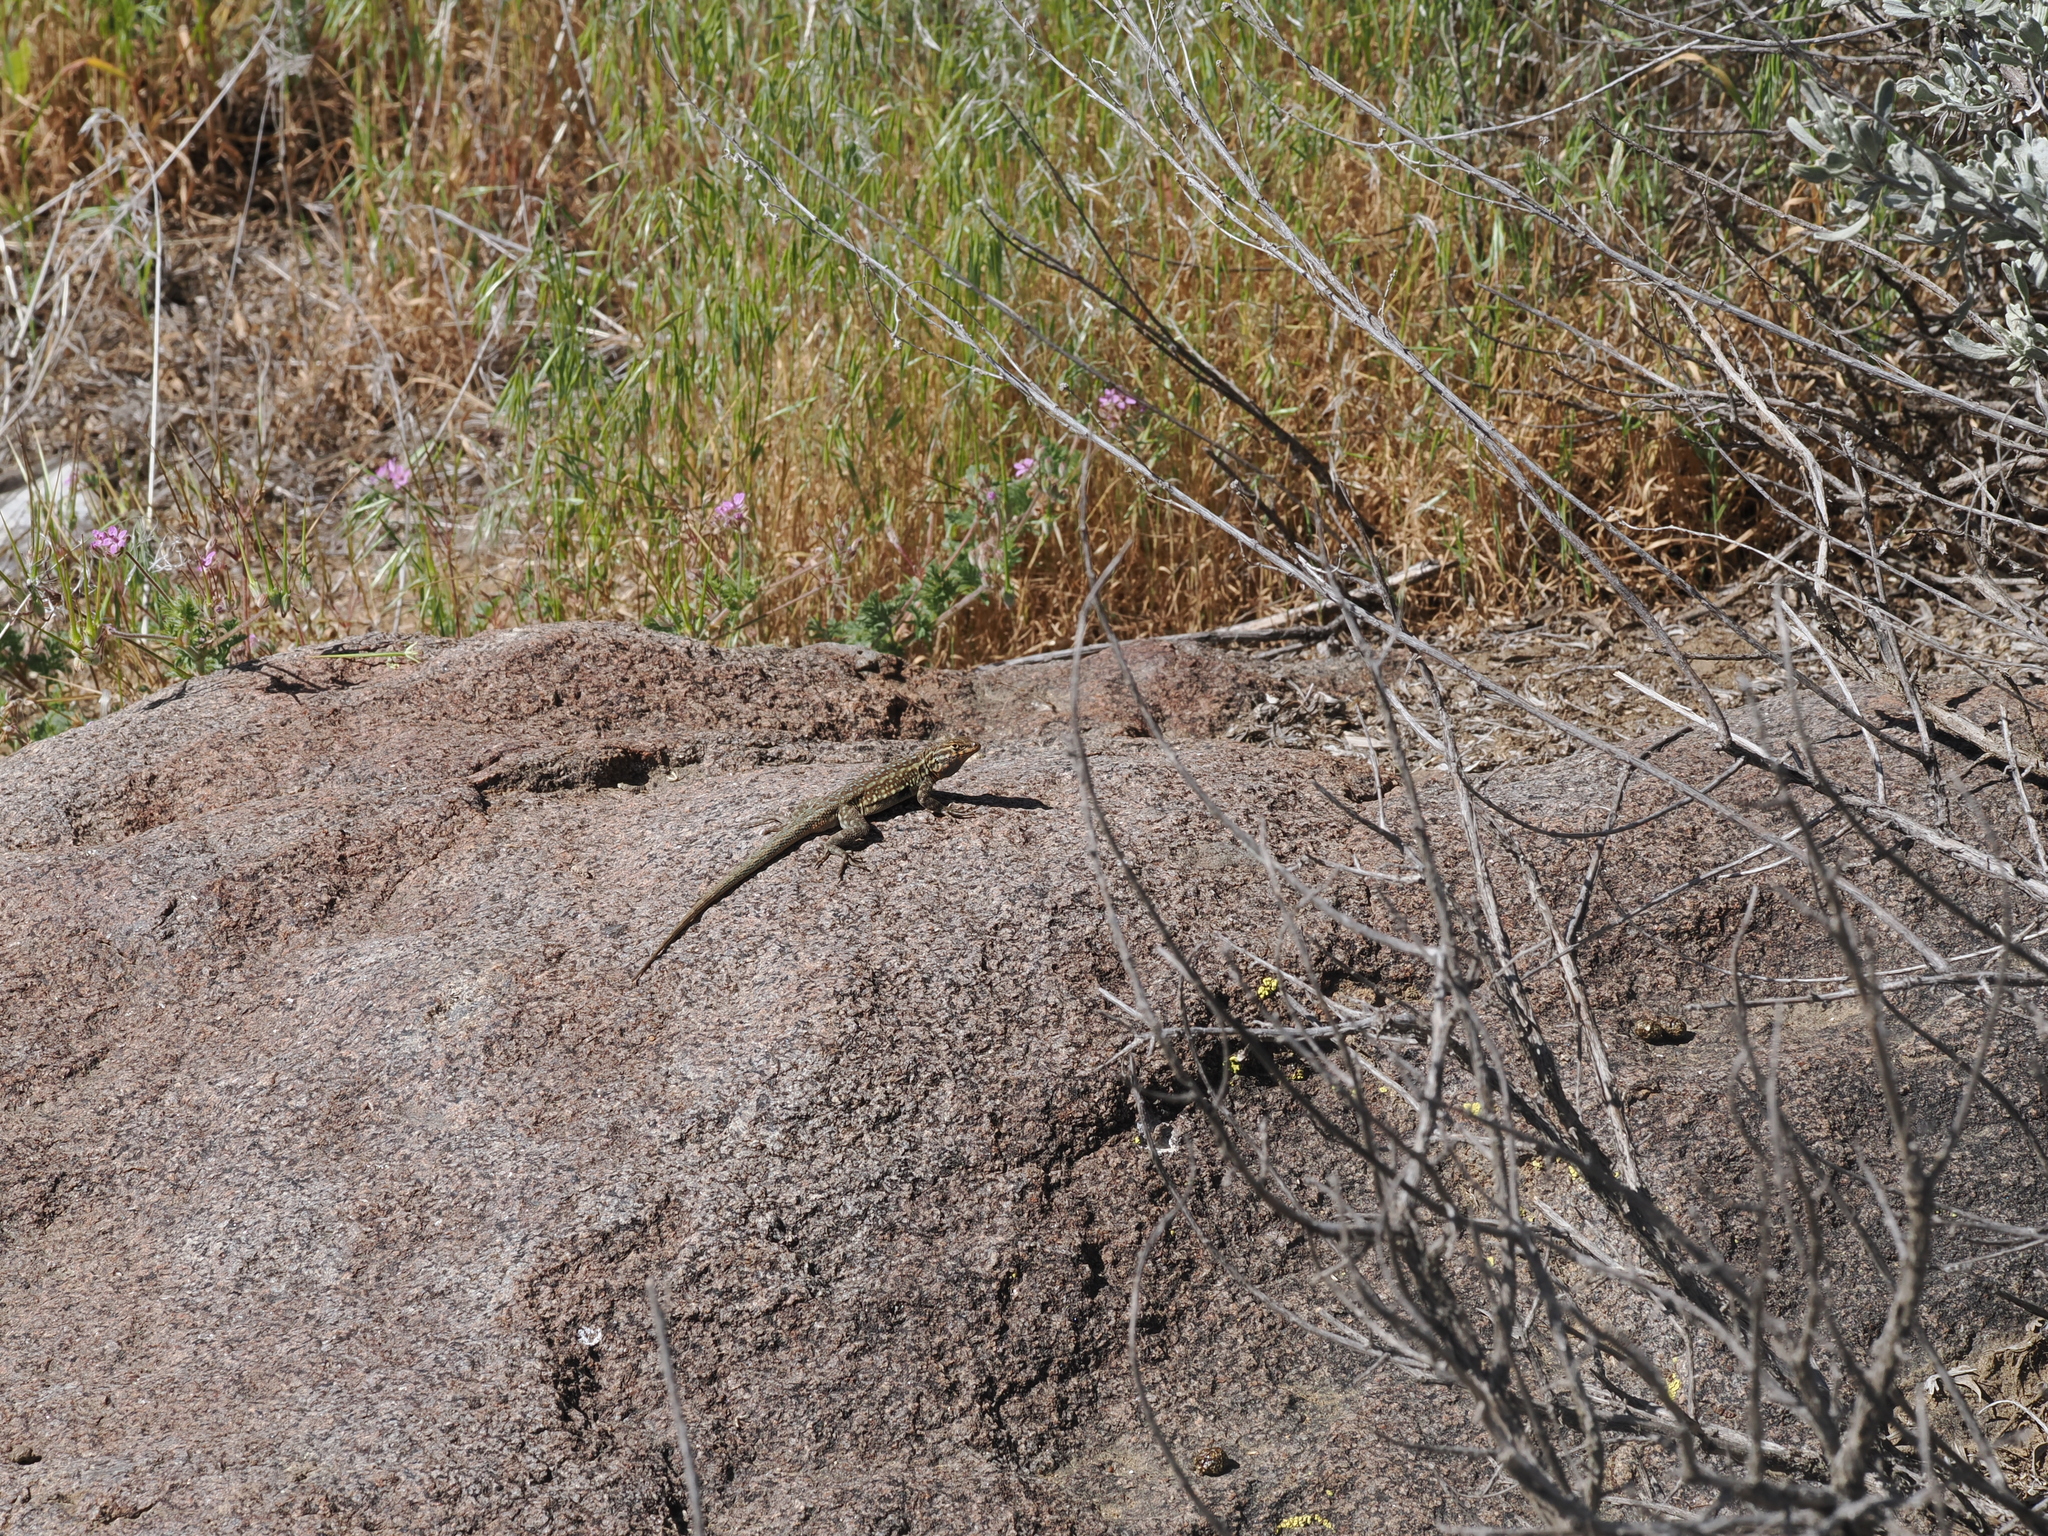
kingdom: Animalia
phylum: Chordata
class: Squamata
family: Phrynosomatidae
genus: Uta
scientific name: Uta stansburiana
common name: Side-blotched lizard
